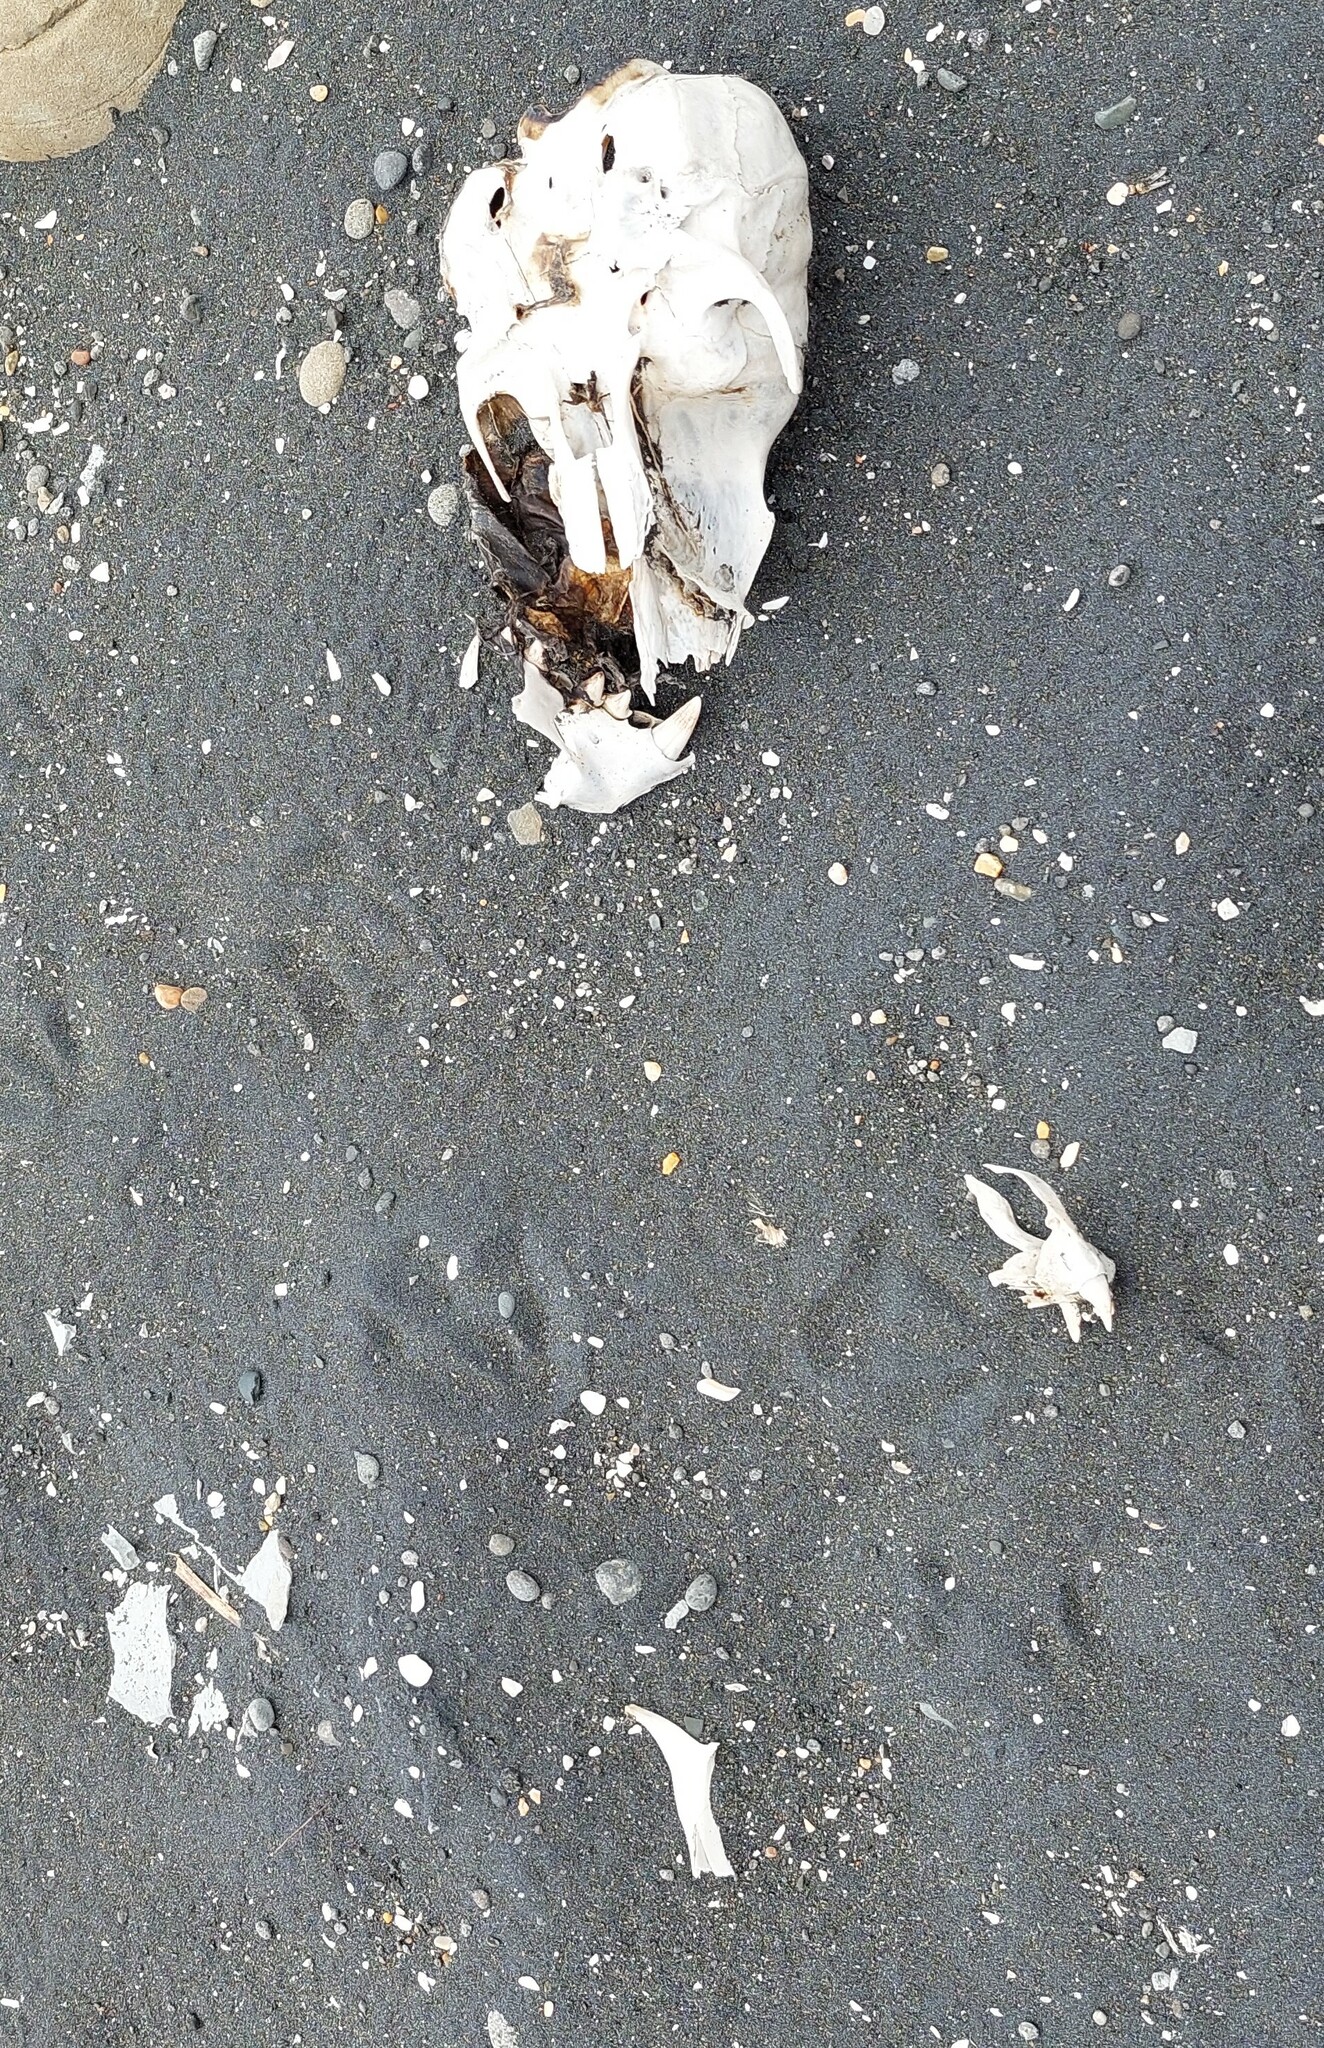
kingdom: Animalia
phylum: Chordata
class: Mammalia
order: Carnivora
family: Otariidae
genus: Arctocephalus
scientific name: Arctocephalus forsteri
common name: New zealand fur seal
